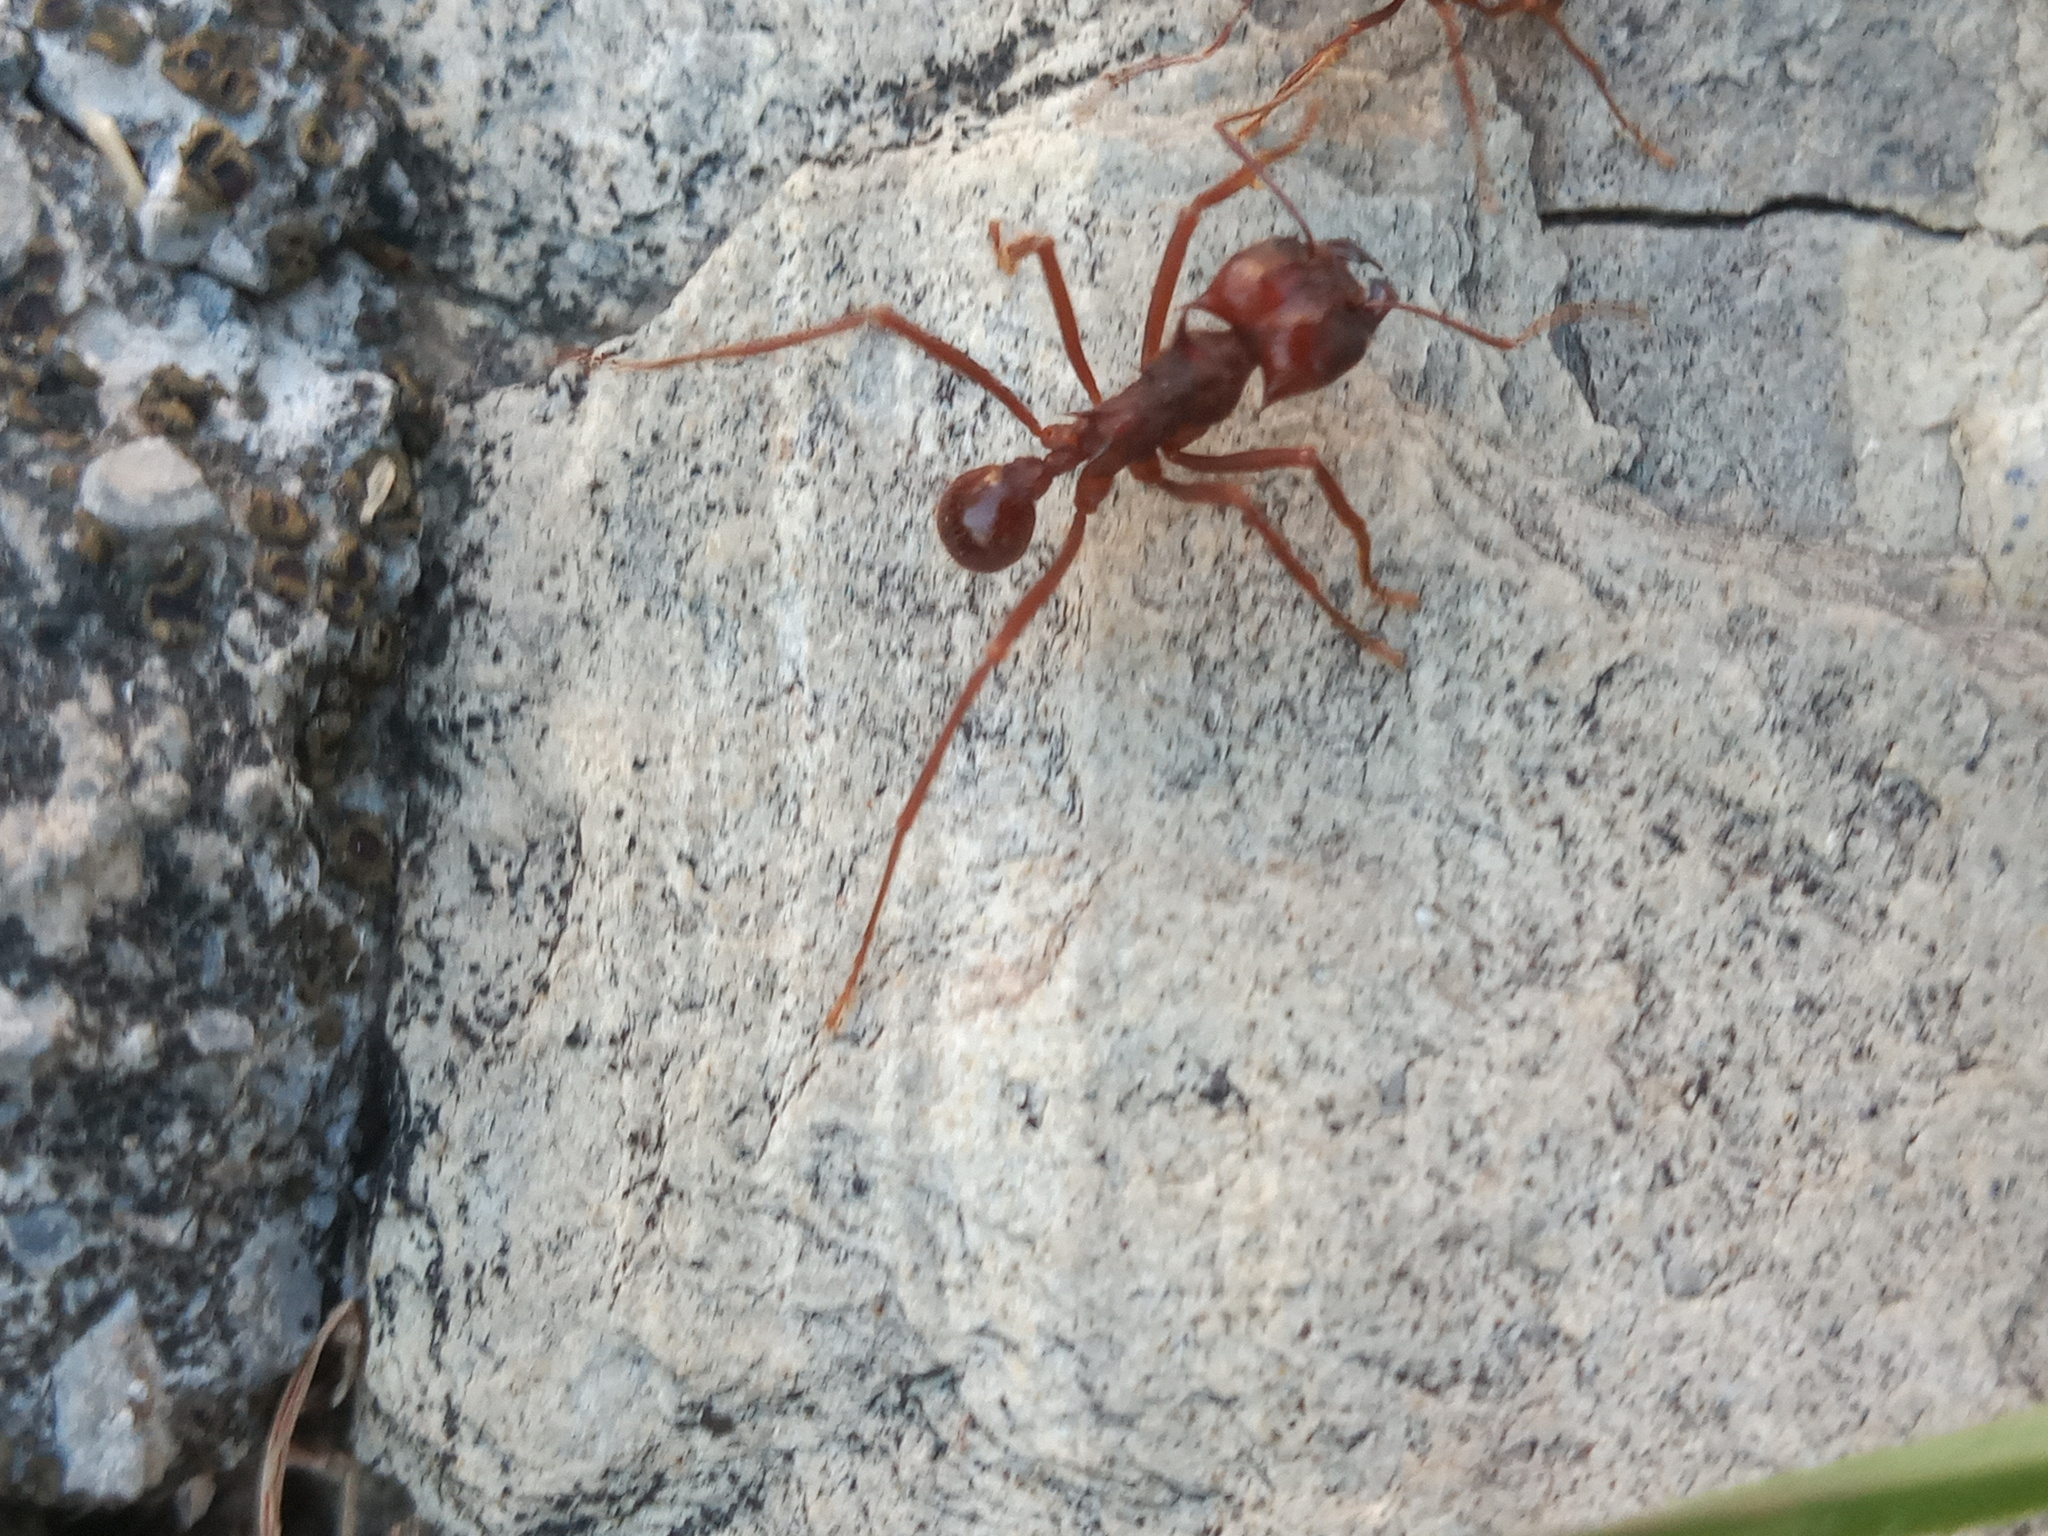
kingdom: Animalia
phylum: Arthropoda
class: Insecta
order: Hymenoptera
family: Formicidae
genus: Atta
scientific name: Atta mexicana
